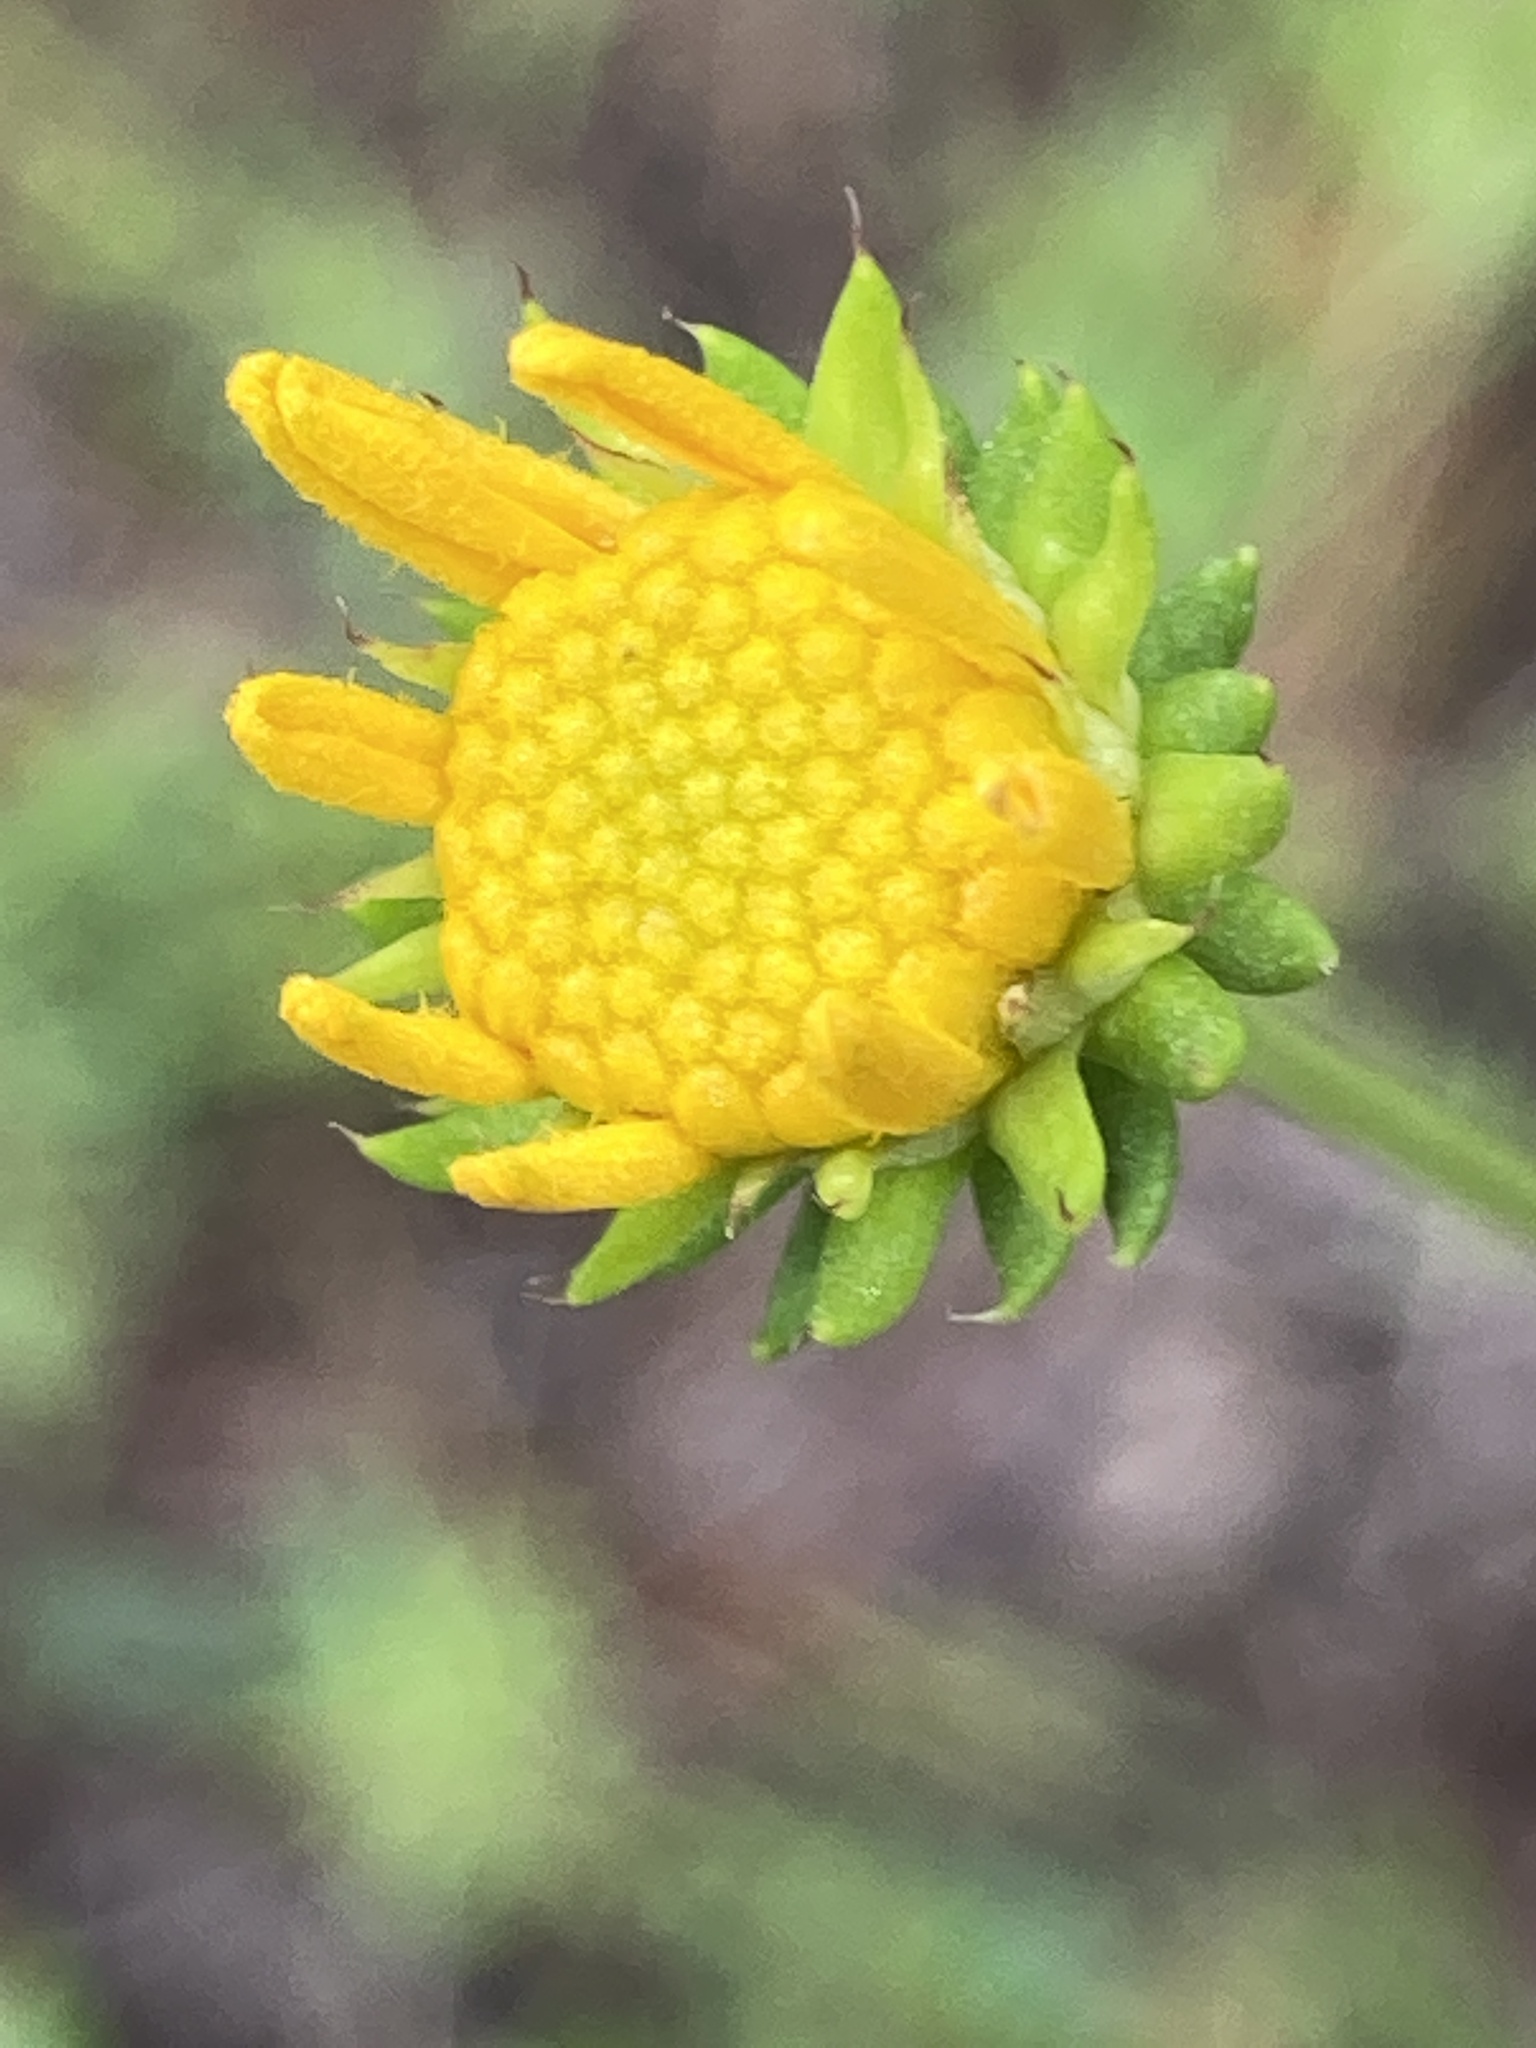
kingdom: Plantae
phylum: Tracheophyta
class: Magnoliopsida
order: Asterales
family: Asteraceae
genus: Balduina
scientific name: Balduina angustifolia
